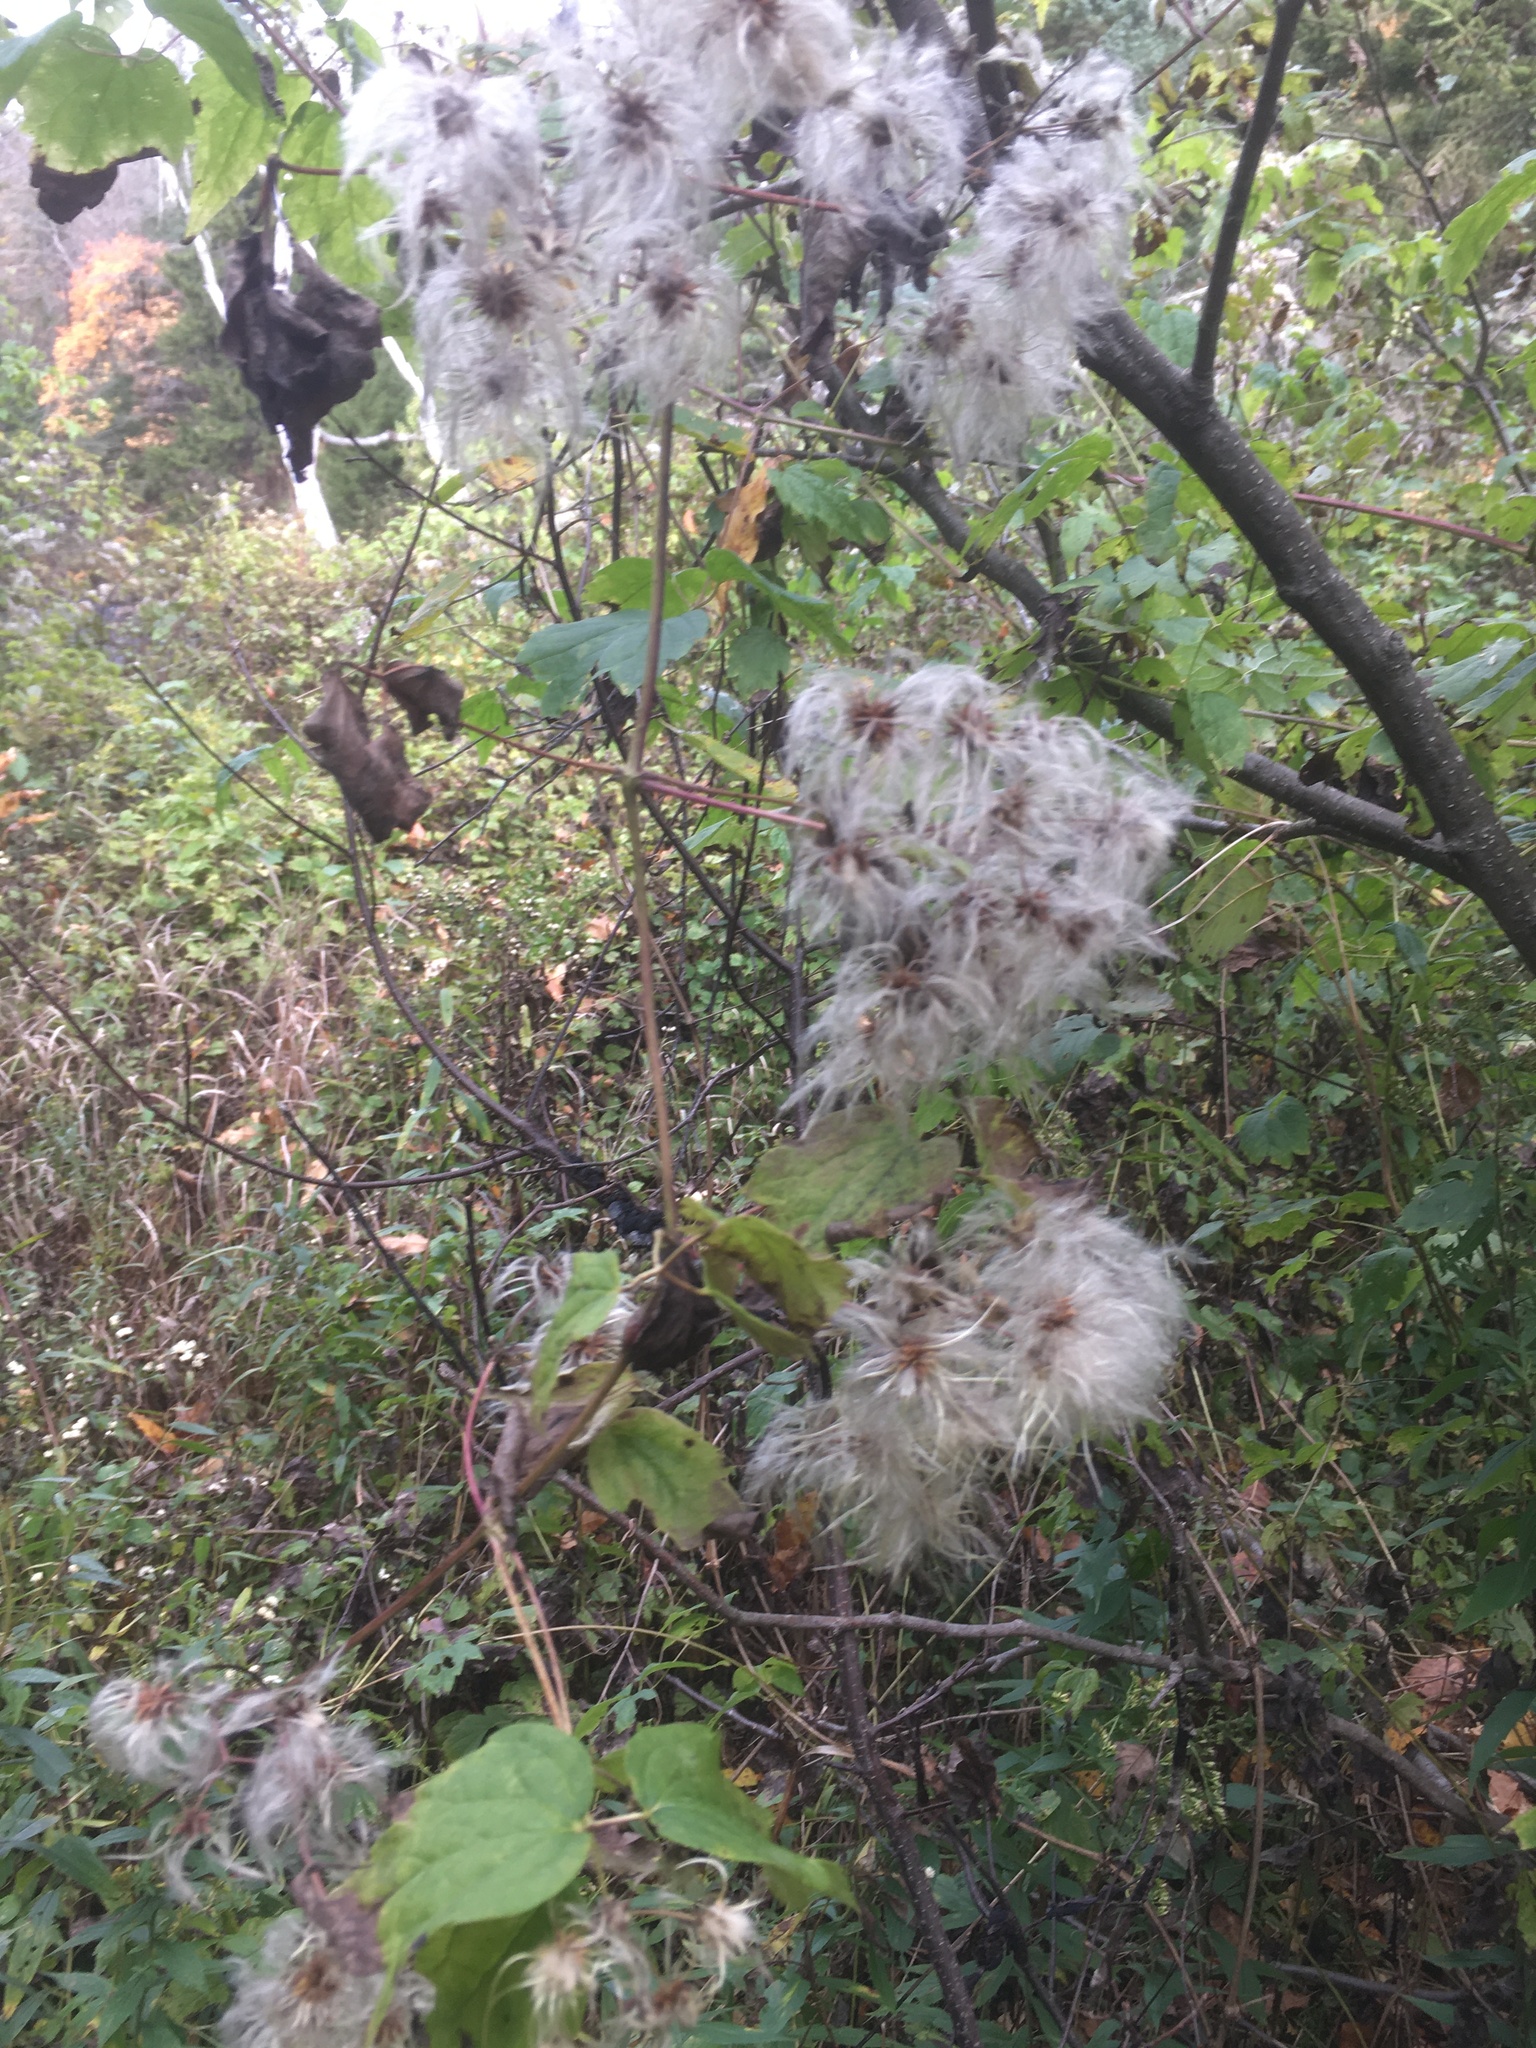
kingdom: Plantae
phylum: Tracheophyta
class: Magnoliopsida
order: Ranunculales
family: Ranunculaceae
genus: Clematis
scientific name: Clematis virginiana
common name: Virgin's-bower
